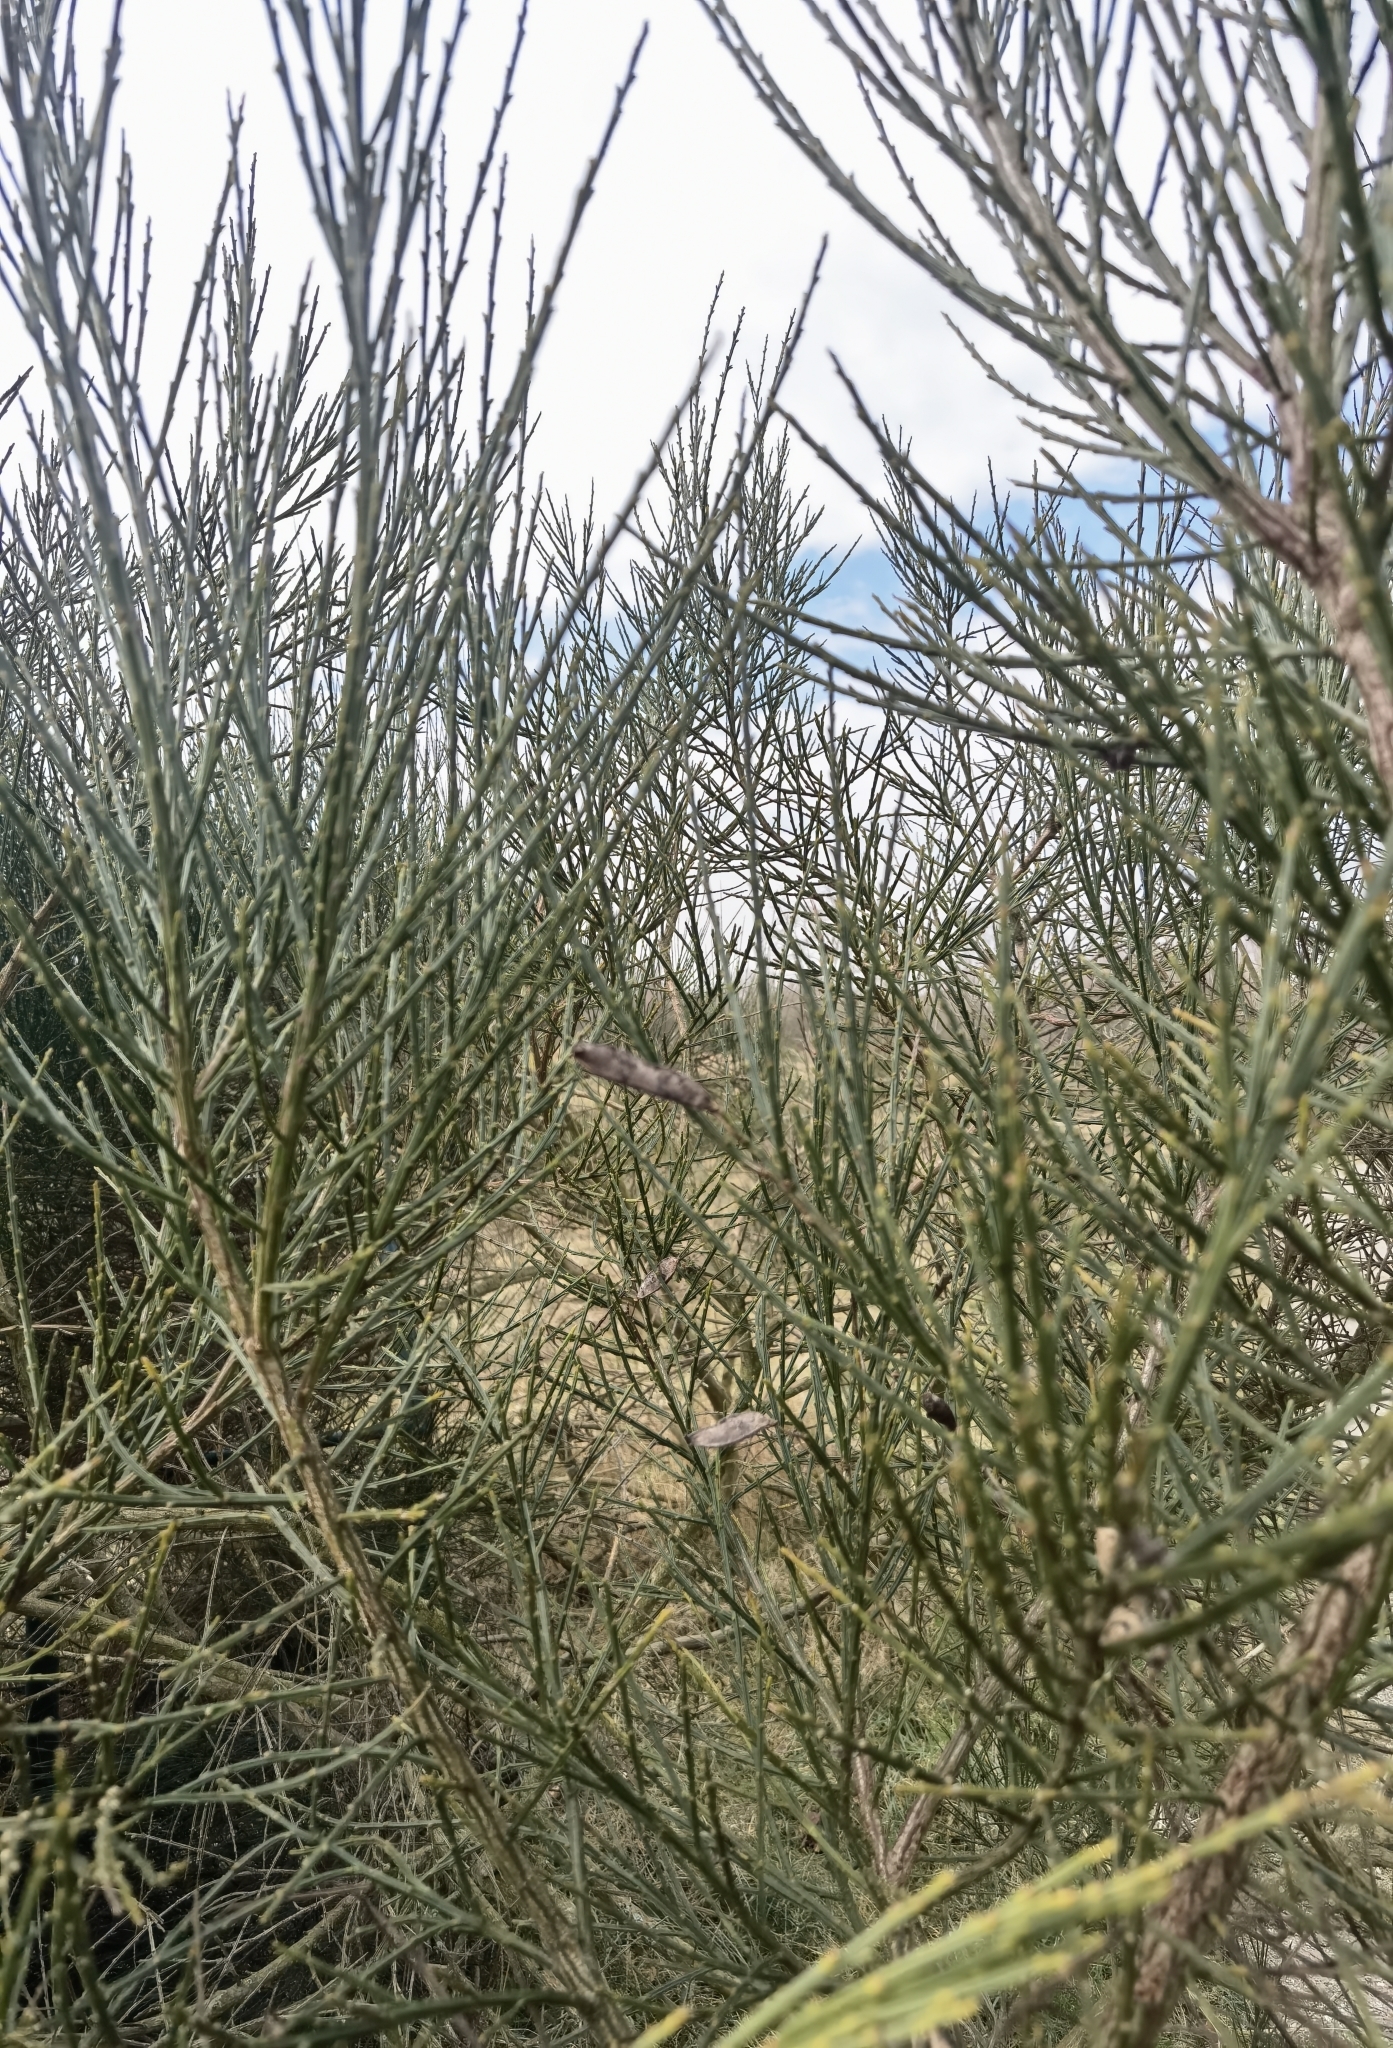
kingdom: Plantae
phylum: Tracheophyta
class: Magnoliopsida
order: Fabales
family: Fabaceae
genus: Cytisus
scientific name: Cytisus scoparius
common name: Scotch broom
